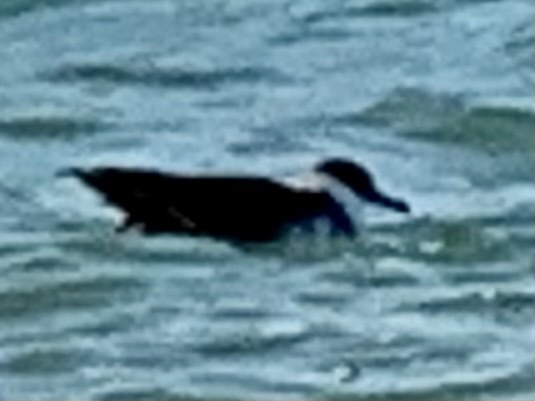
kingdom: Animalia
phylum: Chordata
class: Aves
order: Procellariiformes
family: Procellariidae
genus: Puffinus
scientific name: Puffinus gravis
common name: Great shearwater
